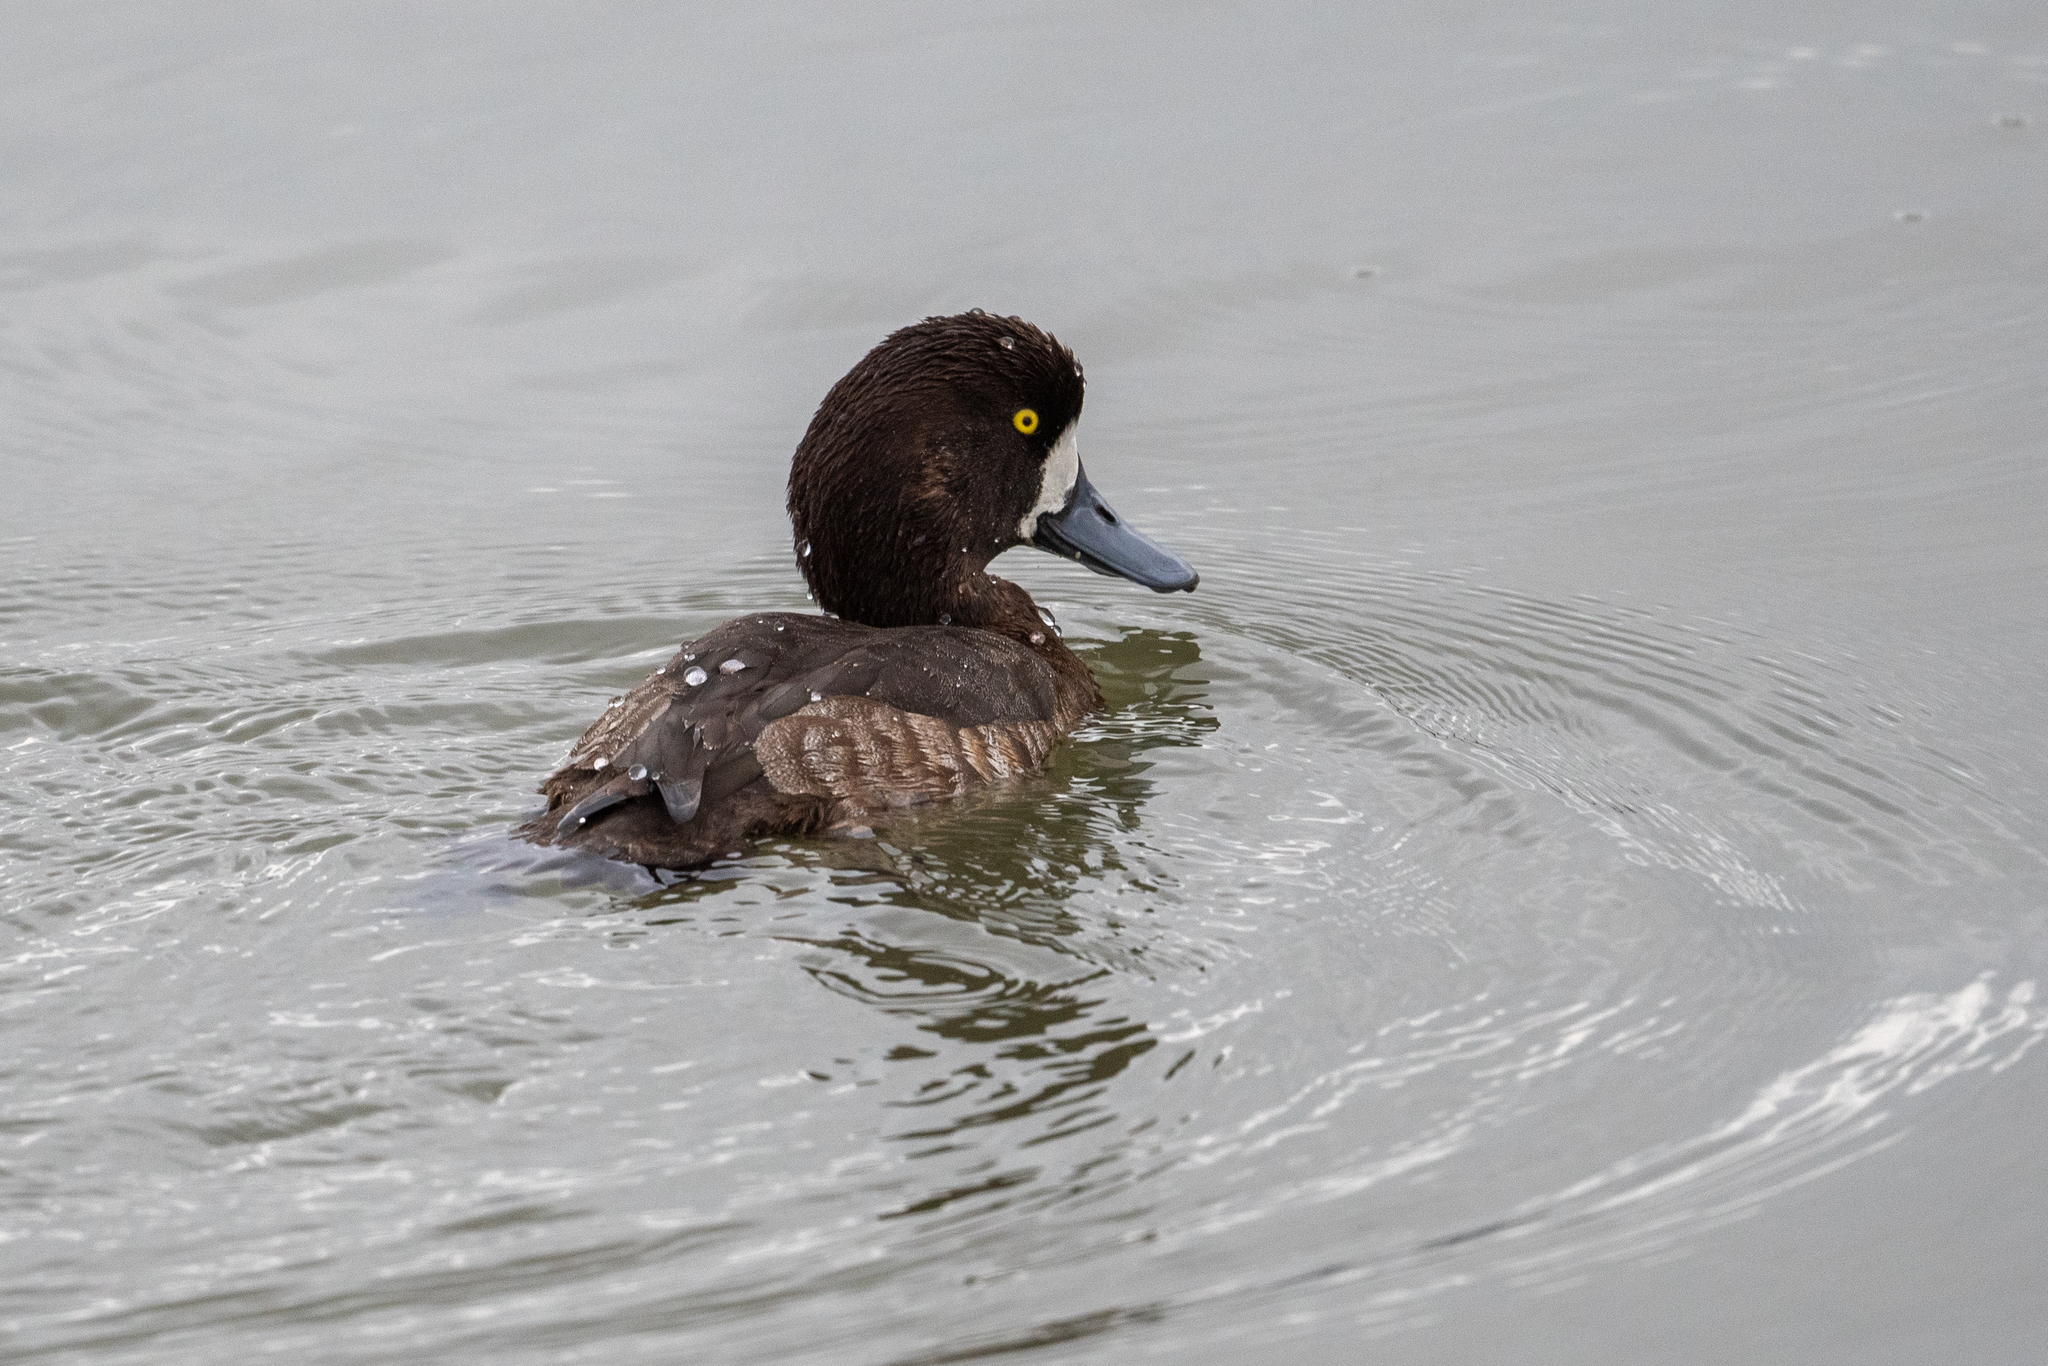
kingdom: Animalia
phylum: Chordata
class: Aves
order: Anseriformes
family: Anatidae
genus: Aythya
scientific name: Aythya marila
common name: Greater scaup
